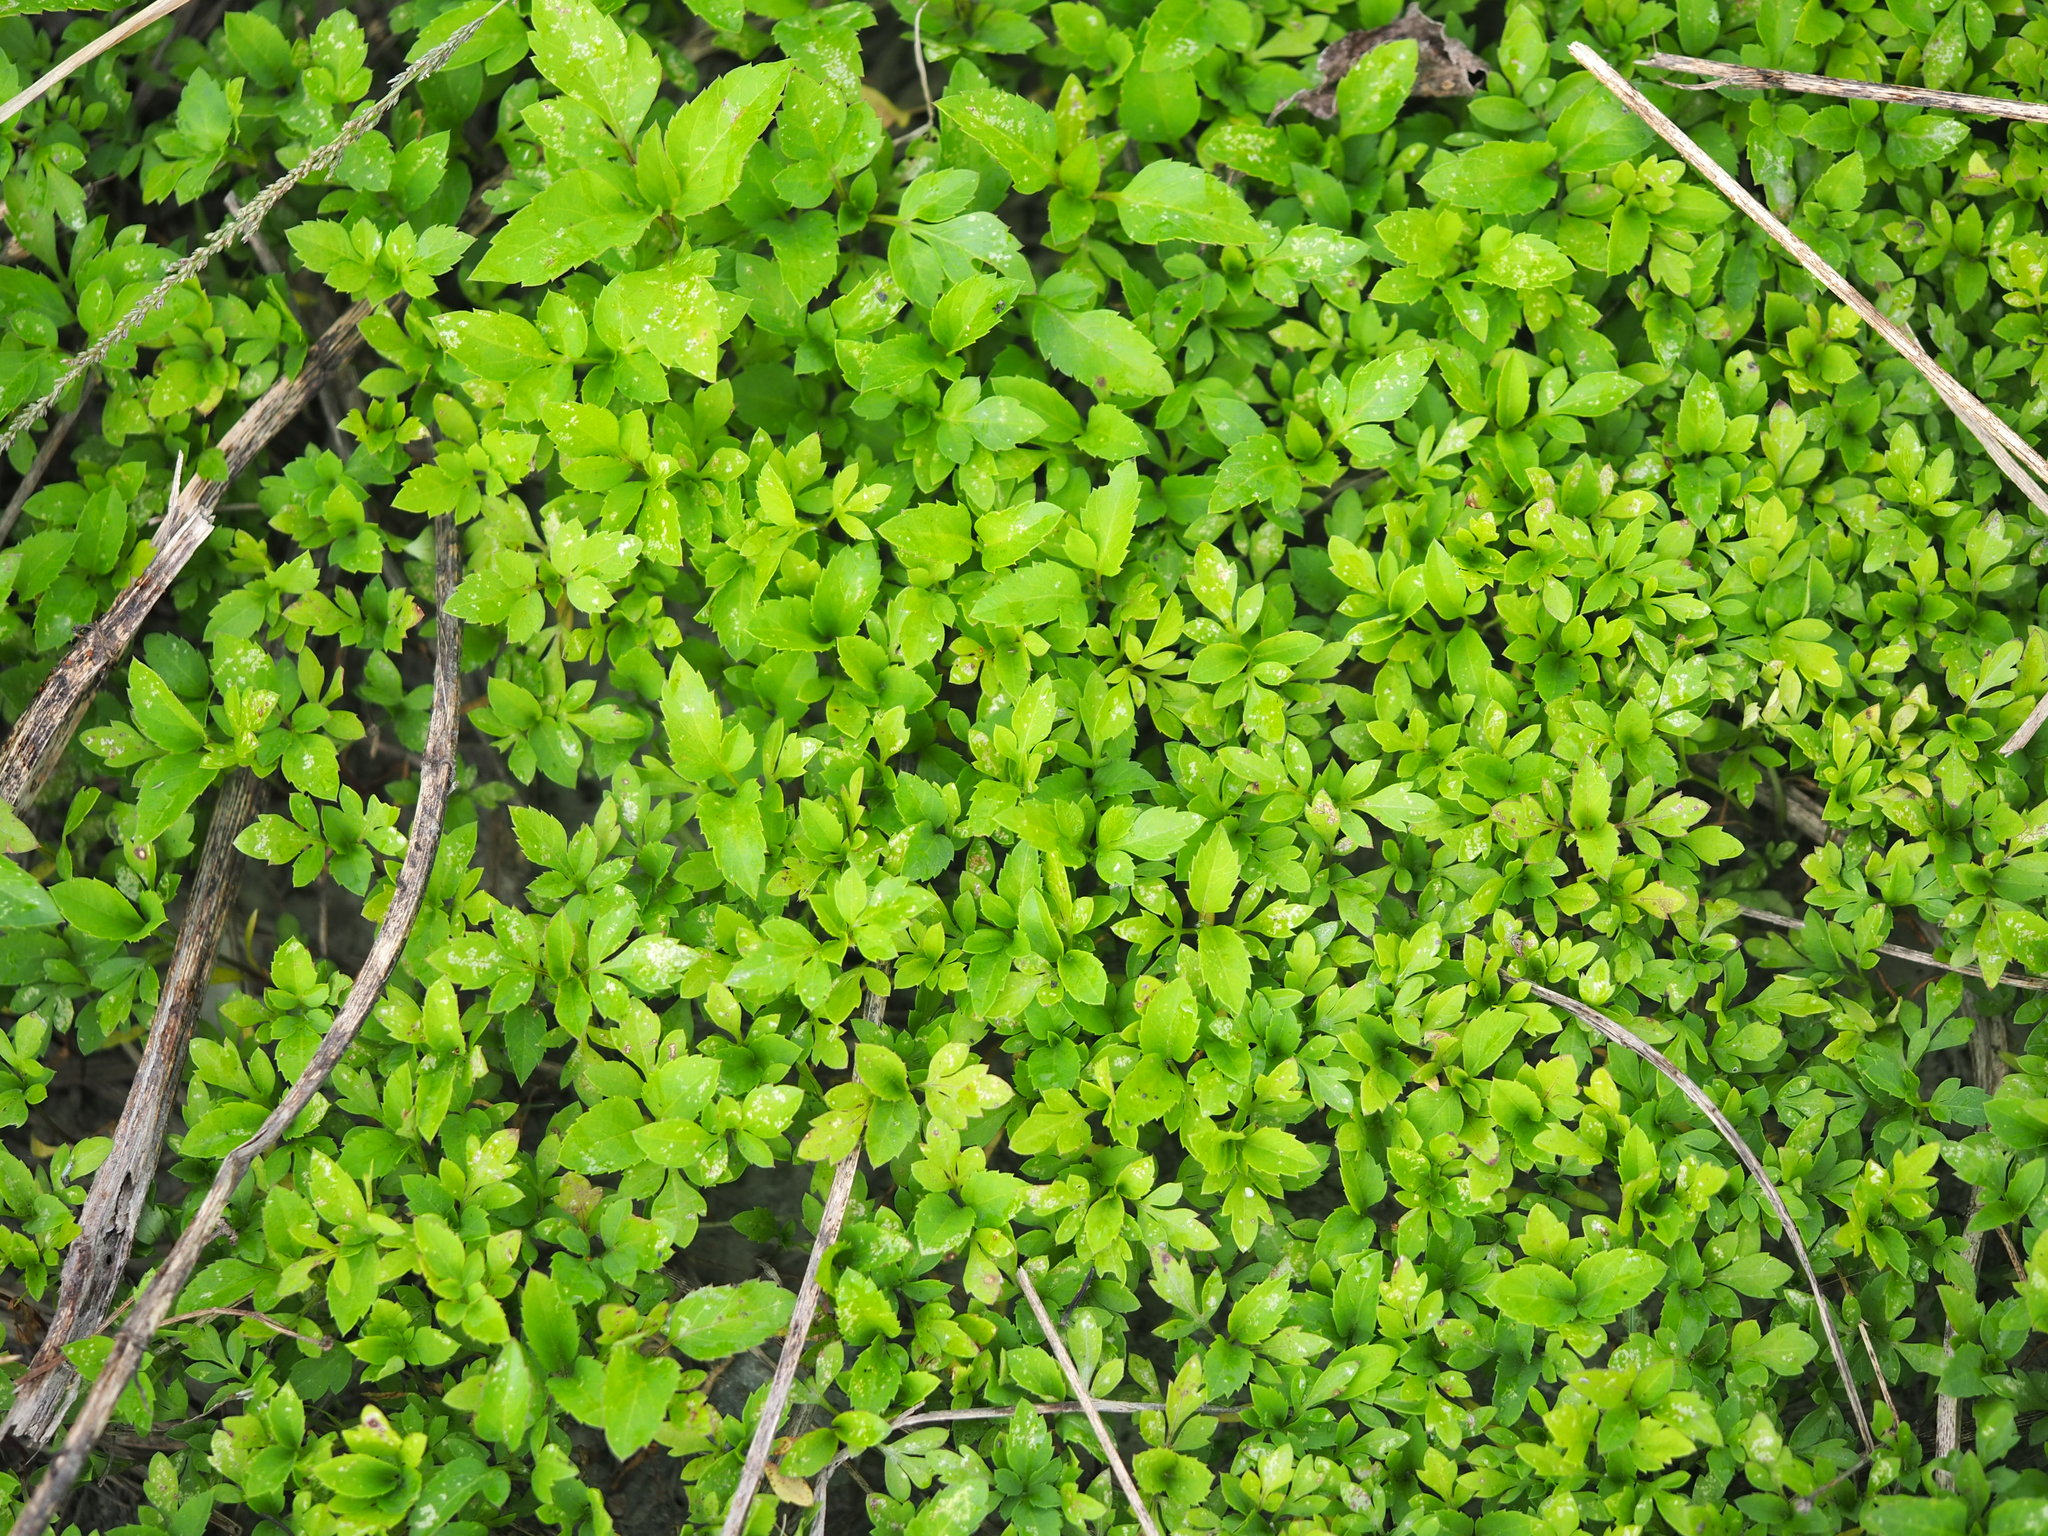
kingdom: Plantae
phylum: Tracheophyta
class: Magnoliopsida
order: Asterales
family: Asteraceae
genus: Bidens
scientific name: Bidens alba
